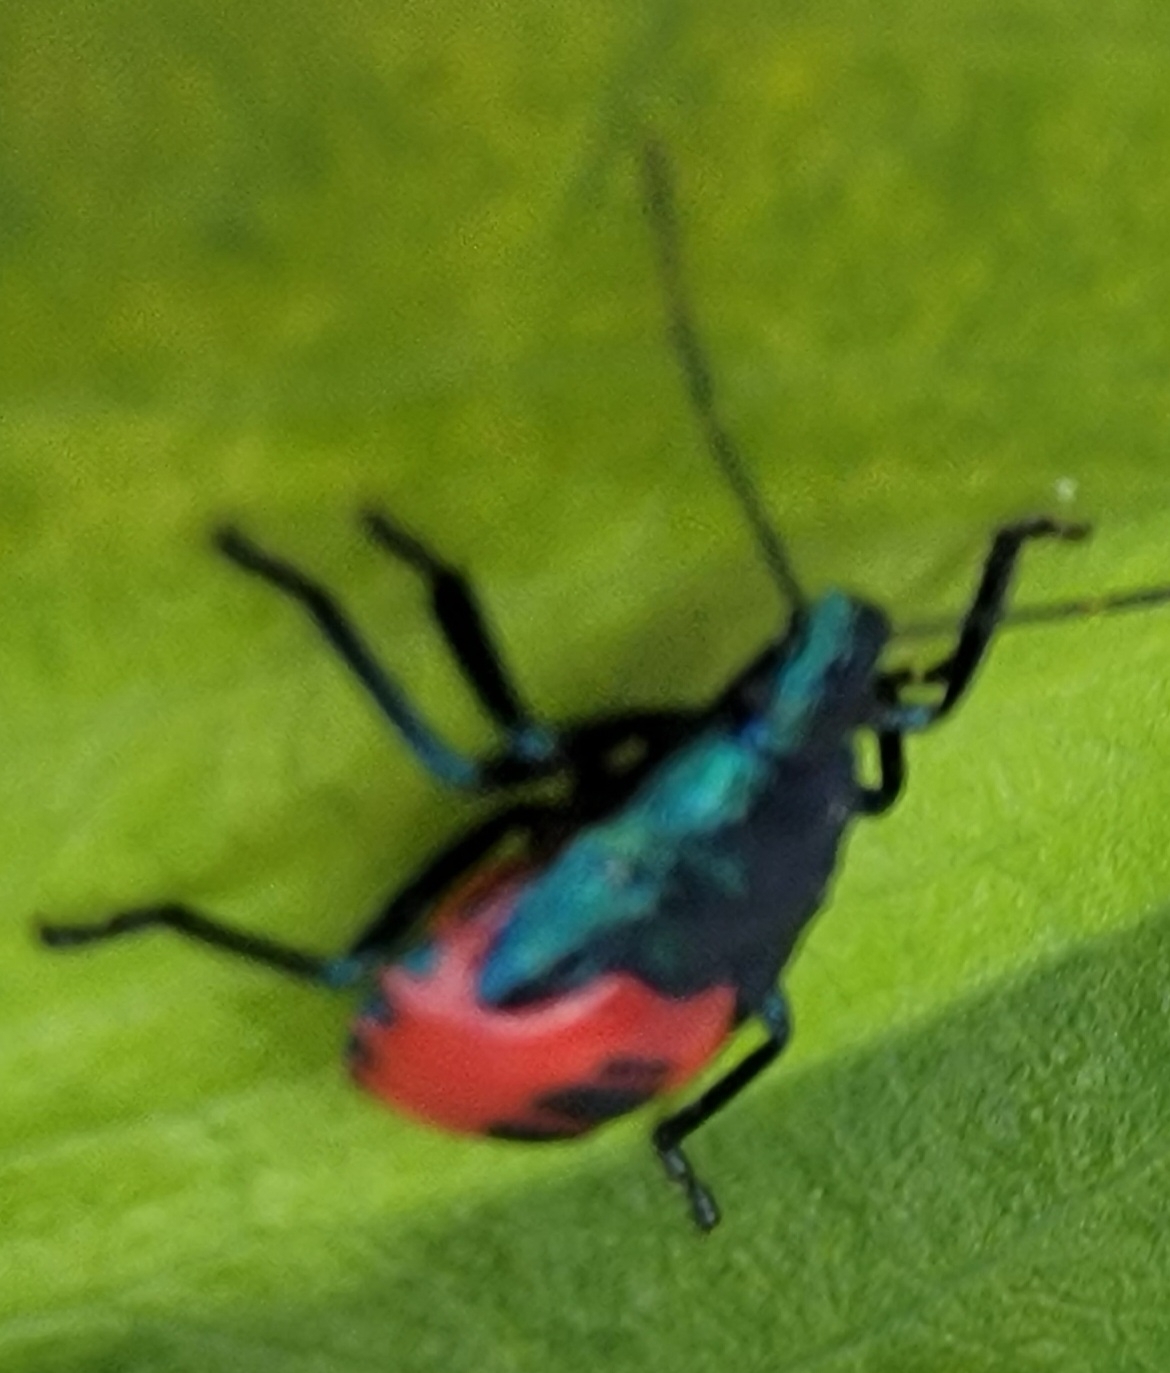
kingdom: Animalia
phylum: Arthropoda
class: Insecta
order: Hemiptera
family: Pentatomidae
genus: Euthyrhynchus
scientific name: Euthyrhynchus floridanus
